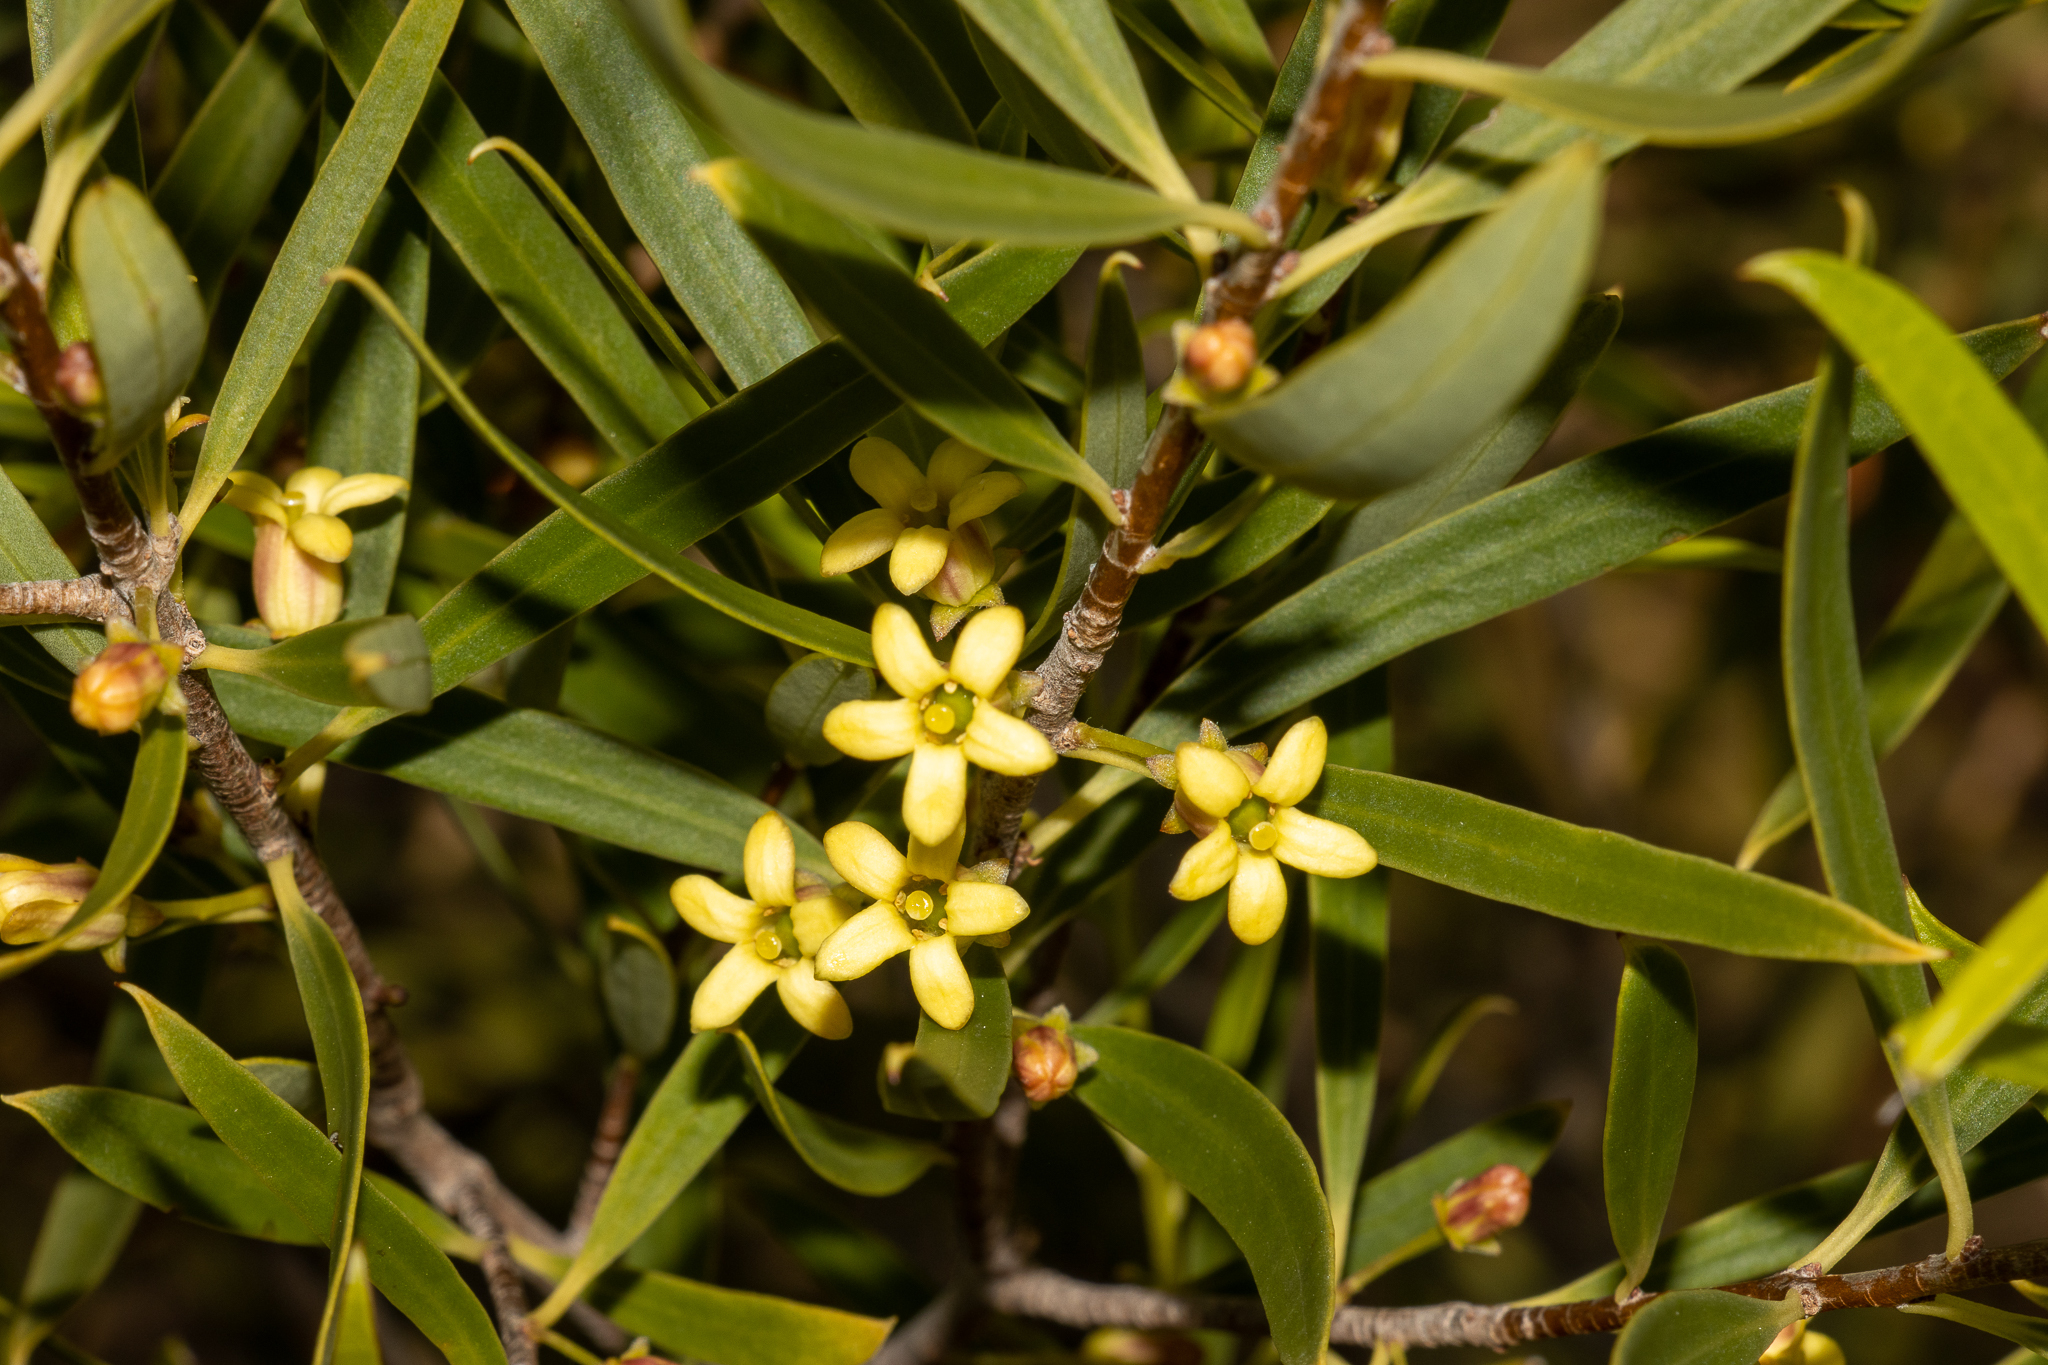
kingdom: Plantae
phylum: Tracheophyta
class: Magnoliopsida
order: Apiales
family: Pittosporaceae
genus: Pittosporum
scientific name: Pittosporum angustifolium
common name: Weeping pittosporum
